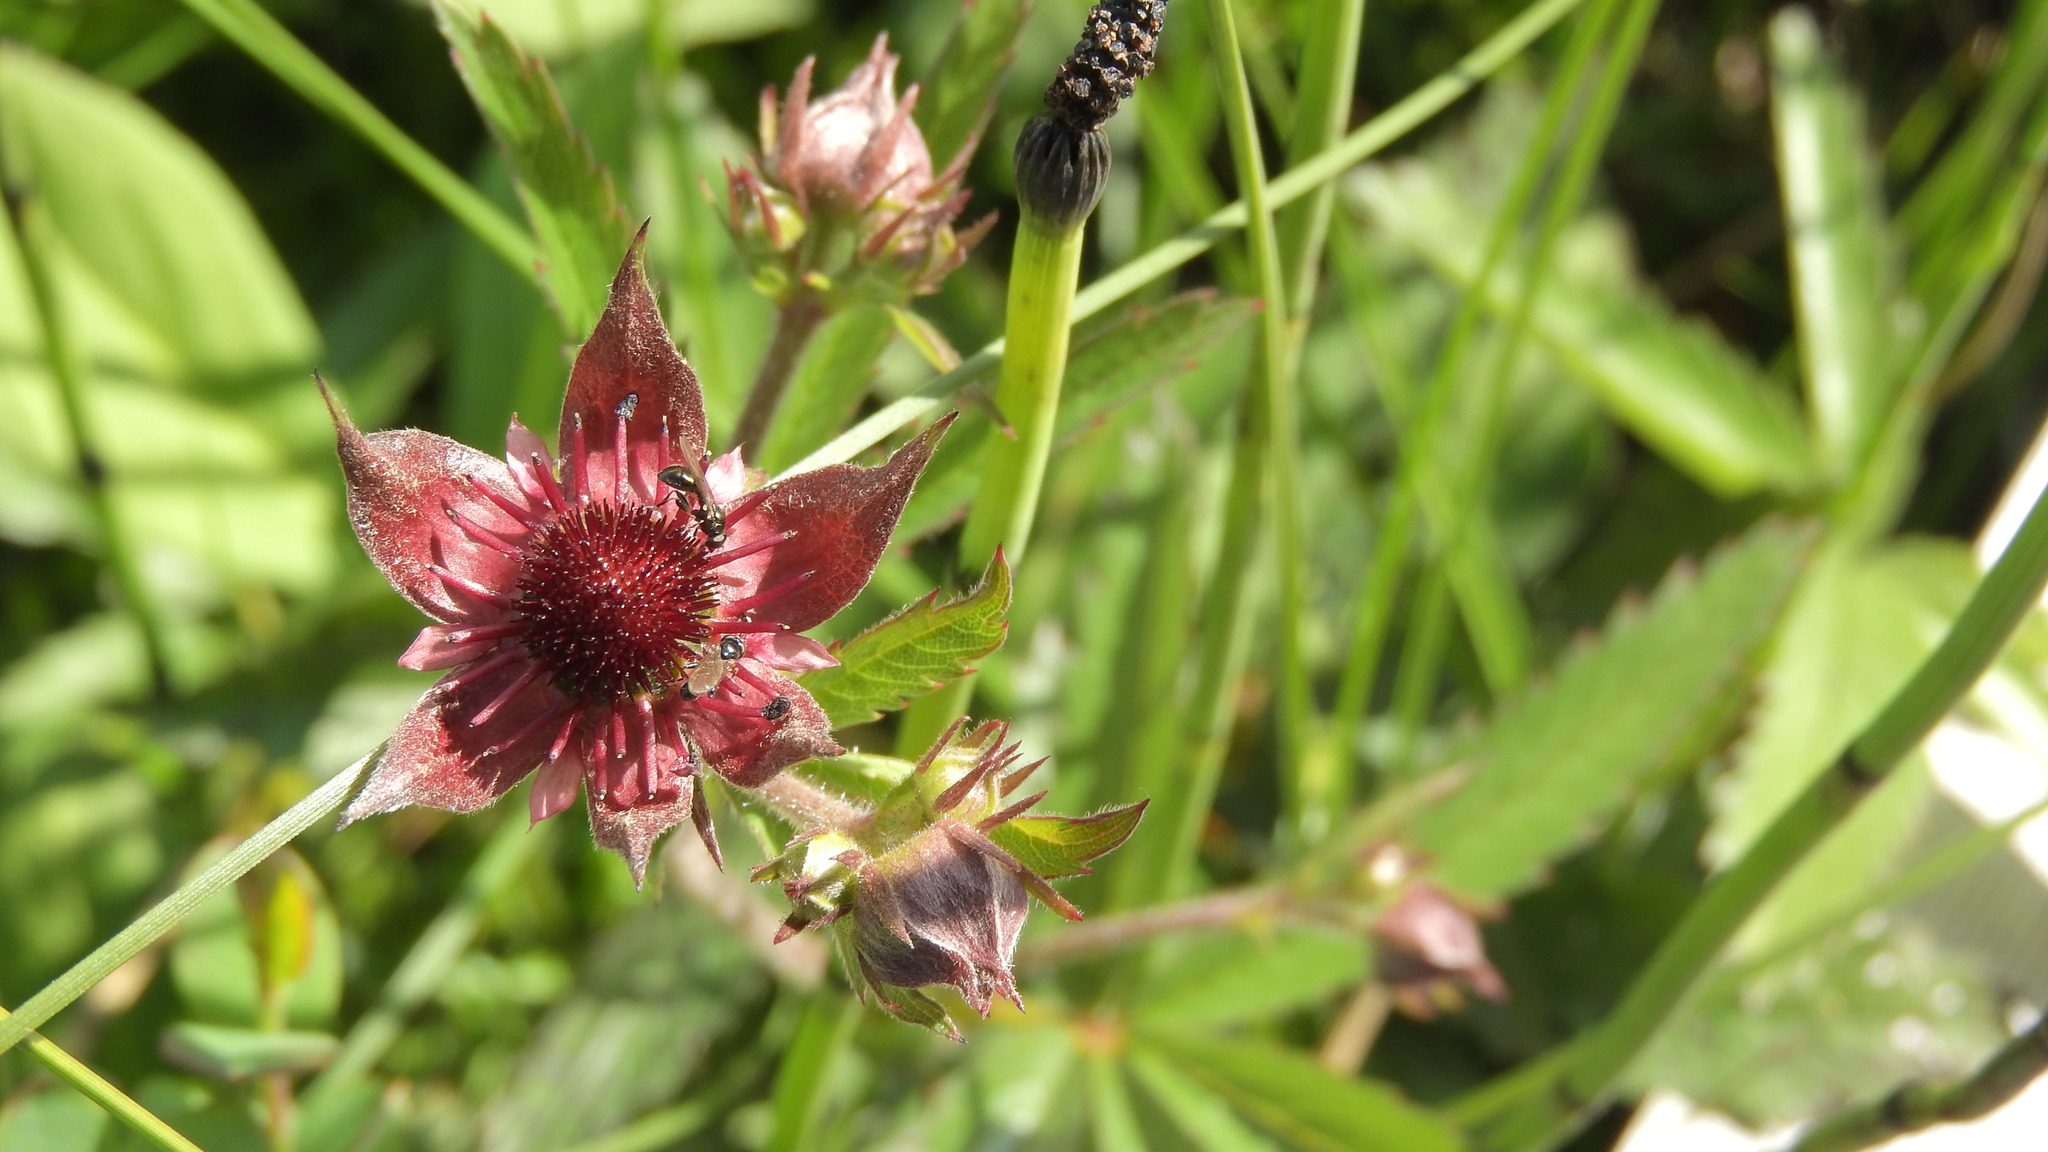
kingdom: Plantae
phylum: Tracheophyta
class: Magnoliopsida
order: Rosales
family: Rosaceae
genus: Comarum
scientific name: Comarum palustre
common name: Marsh cinquefoil
